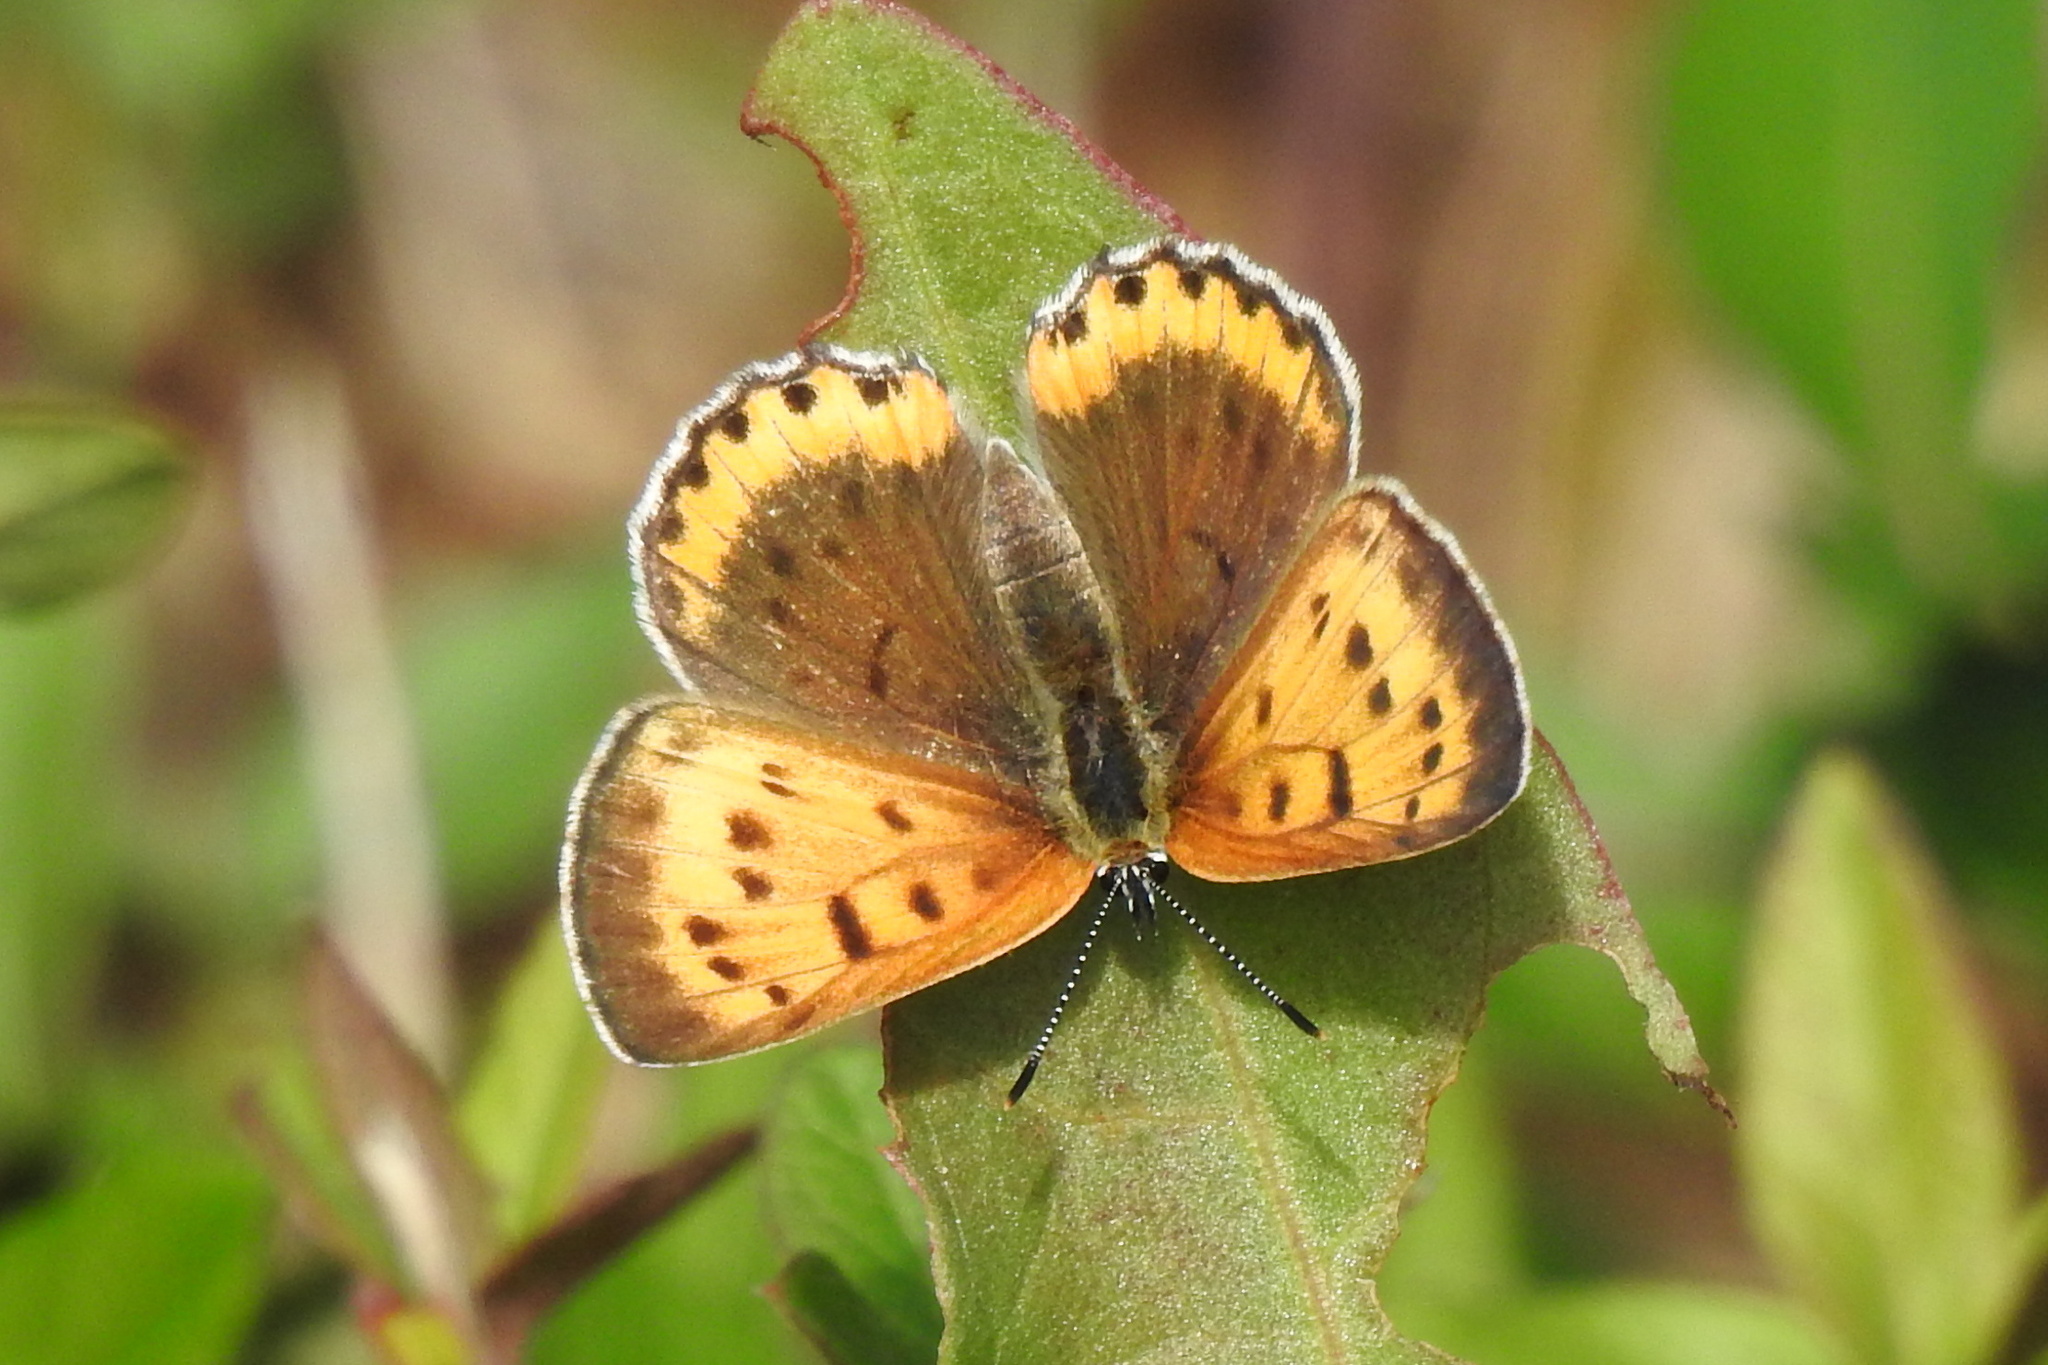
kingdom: Animalia
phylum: Arthropoda
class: Insecta
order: Lepidoptera
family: Lycaenidae
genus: Tharsalea
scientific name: Tharsalea hyllus
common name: Bronze copper
